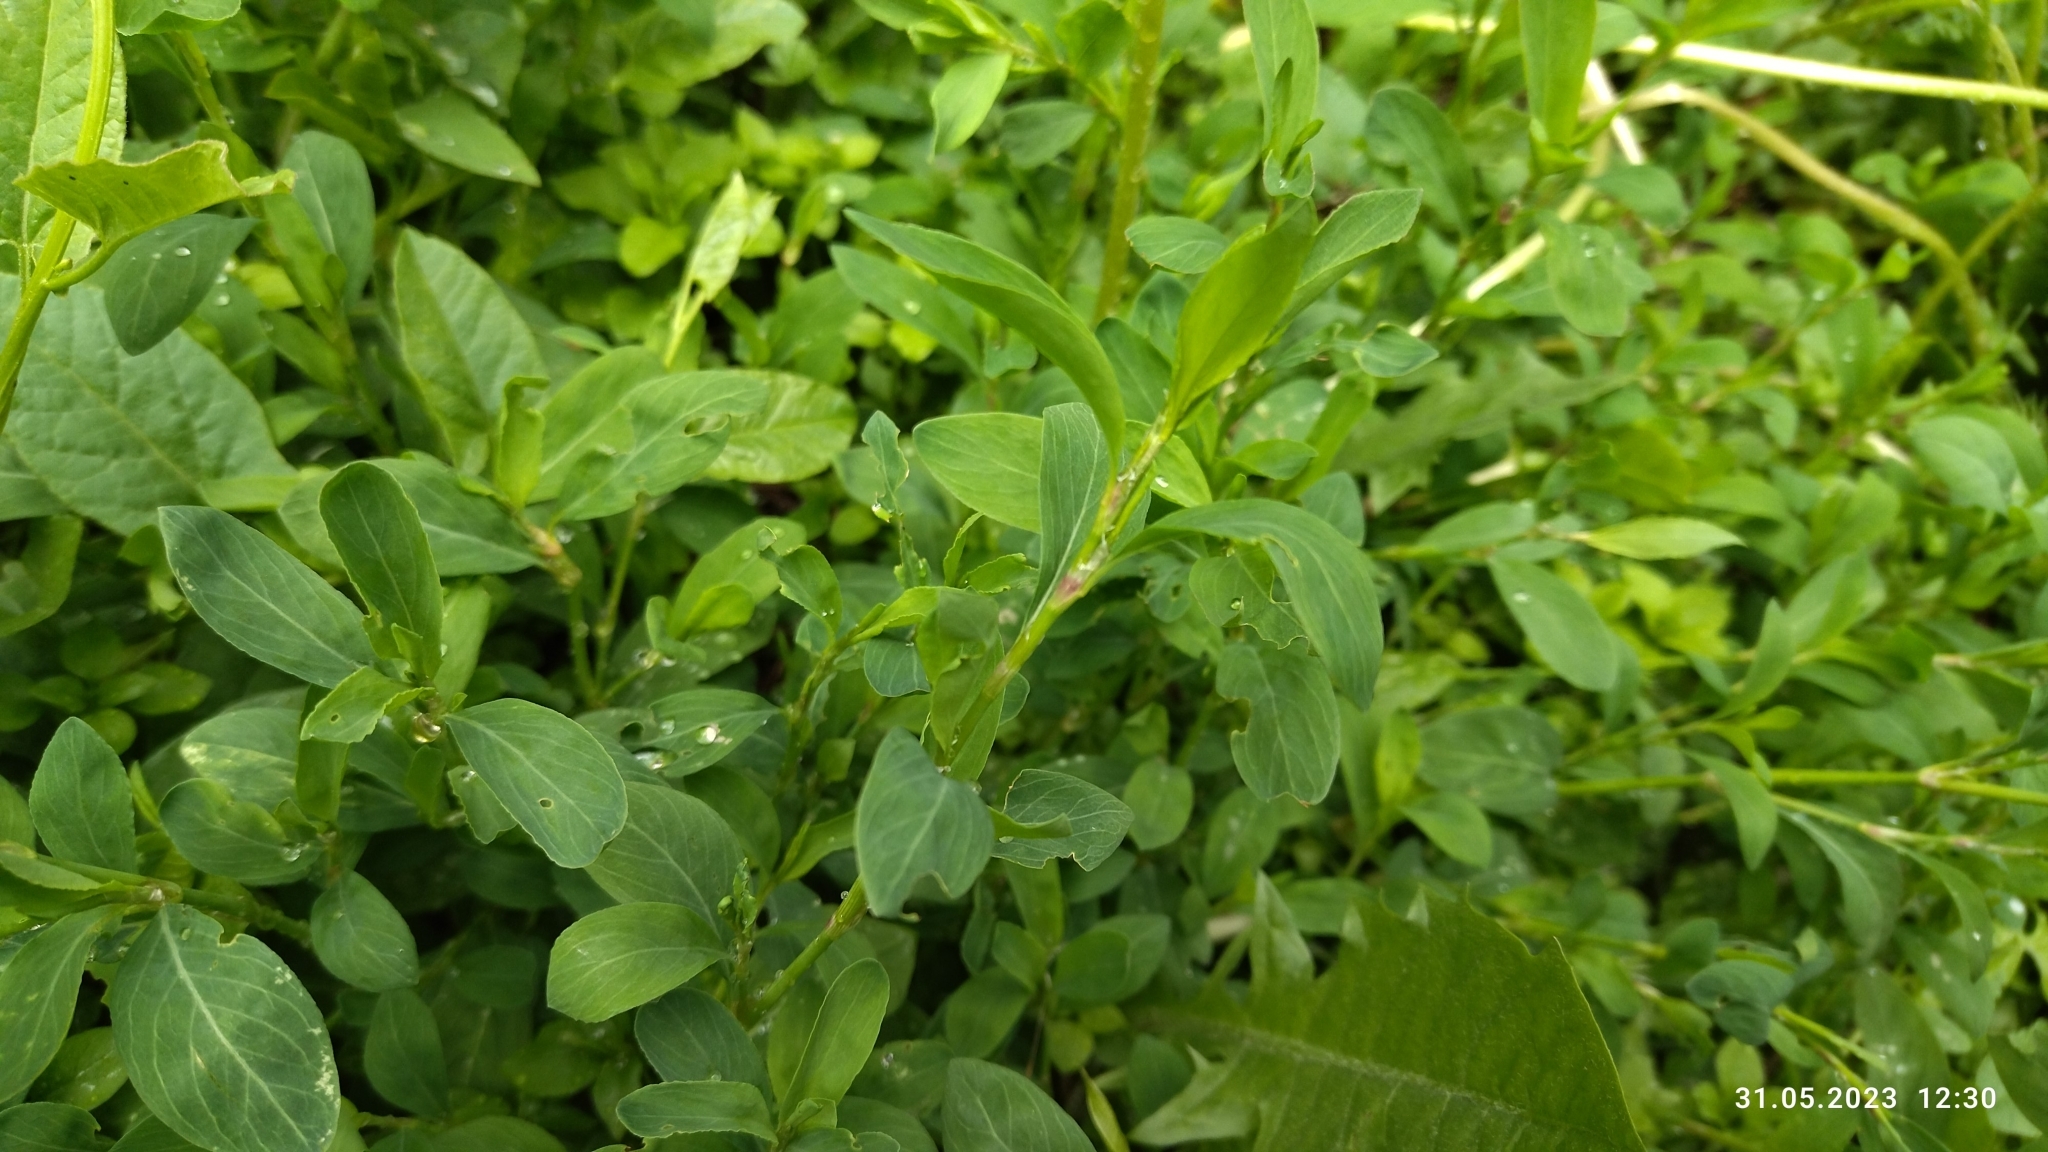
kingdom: Plantae
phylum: Tracheophyta
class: Magnoliopsida
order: Caryophyllales
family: Polygonaceae
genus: Polygonum
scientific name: Polygonum
